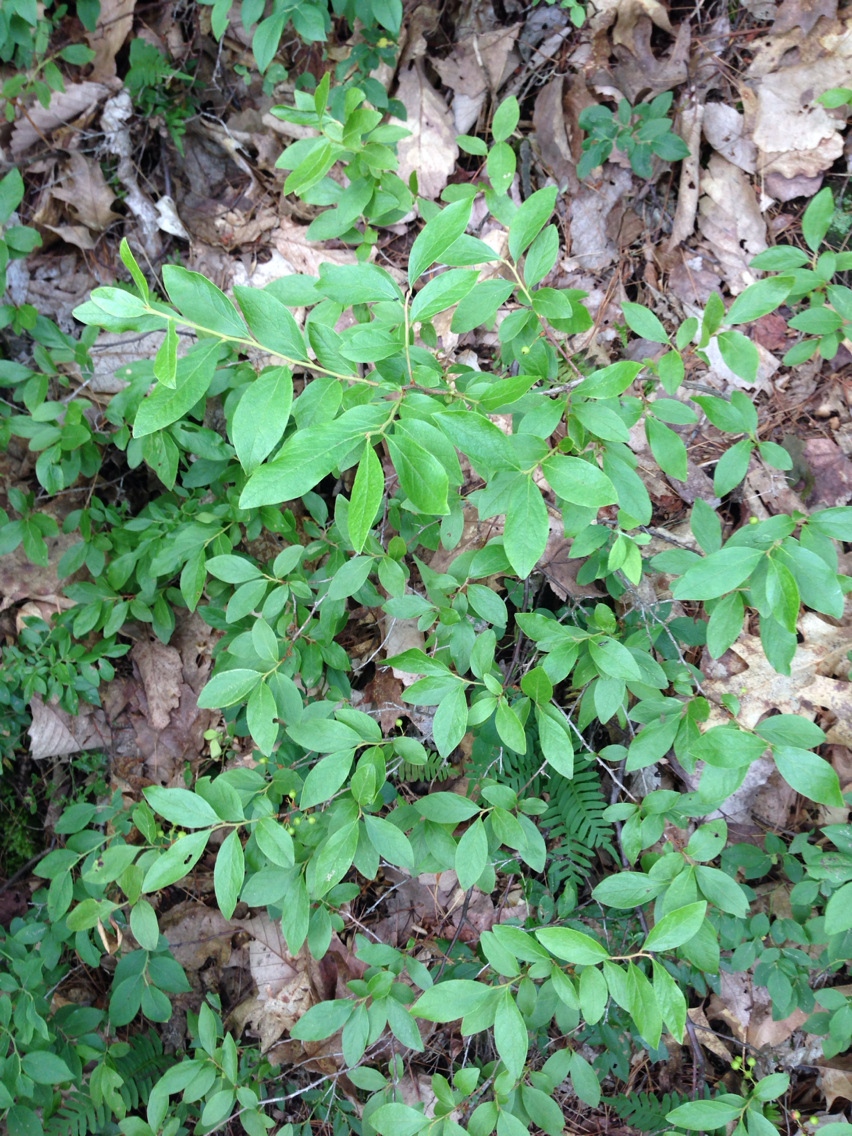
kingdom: Plantae
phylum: Tracheophyta
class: Magnoliopsida
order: Ericales
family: Ericaceae
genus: Gaylussacia
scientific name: Gaylussacia baccata
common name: Black huckleberry
